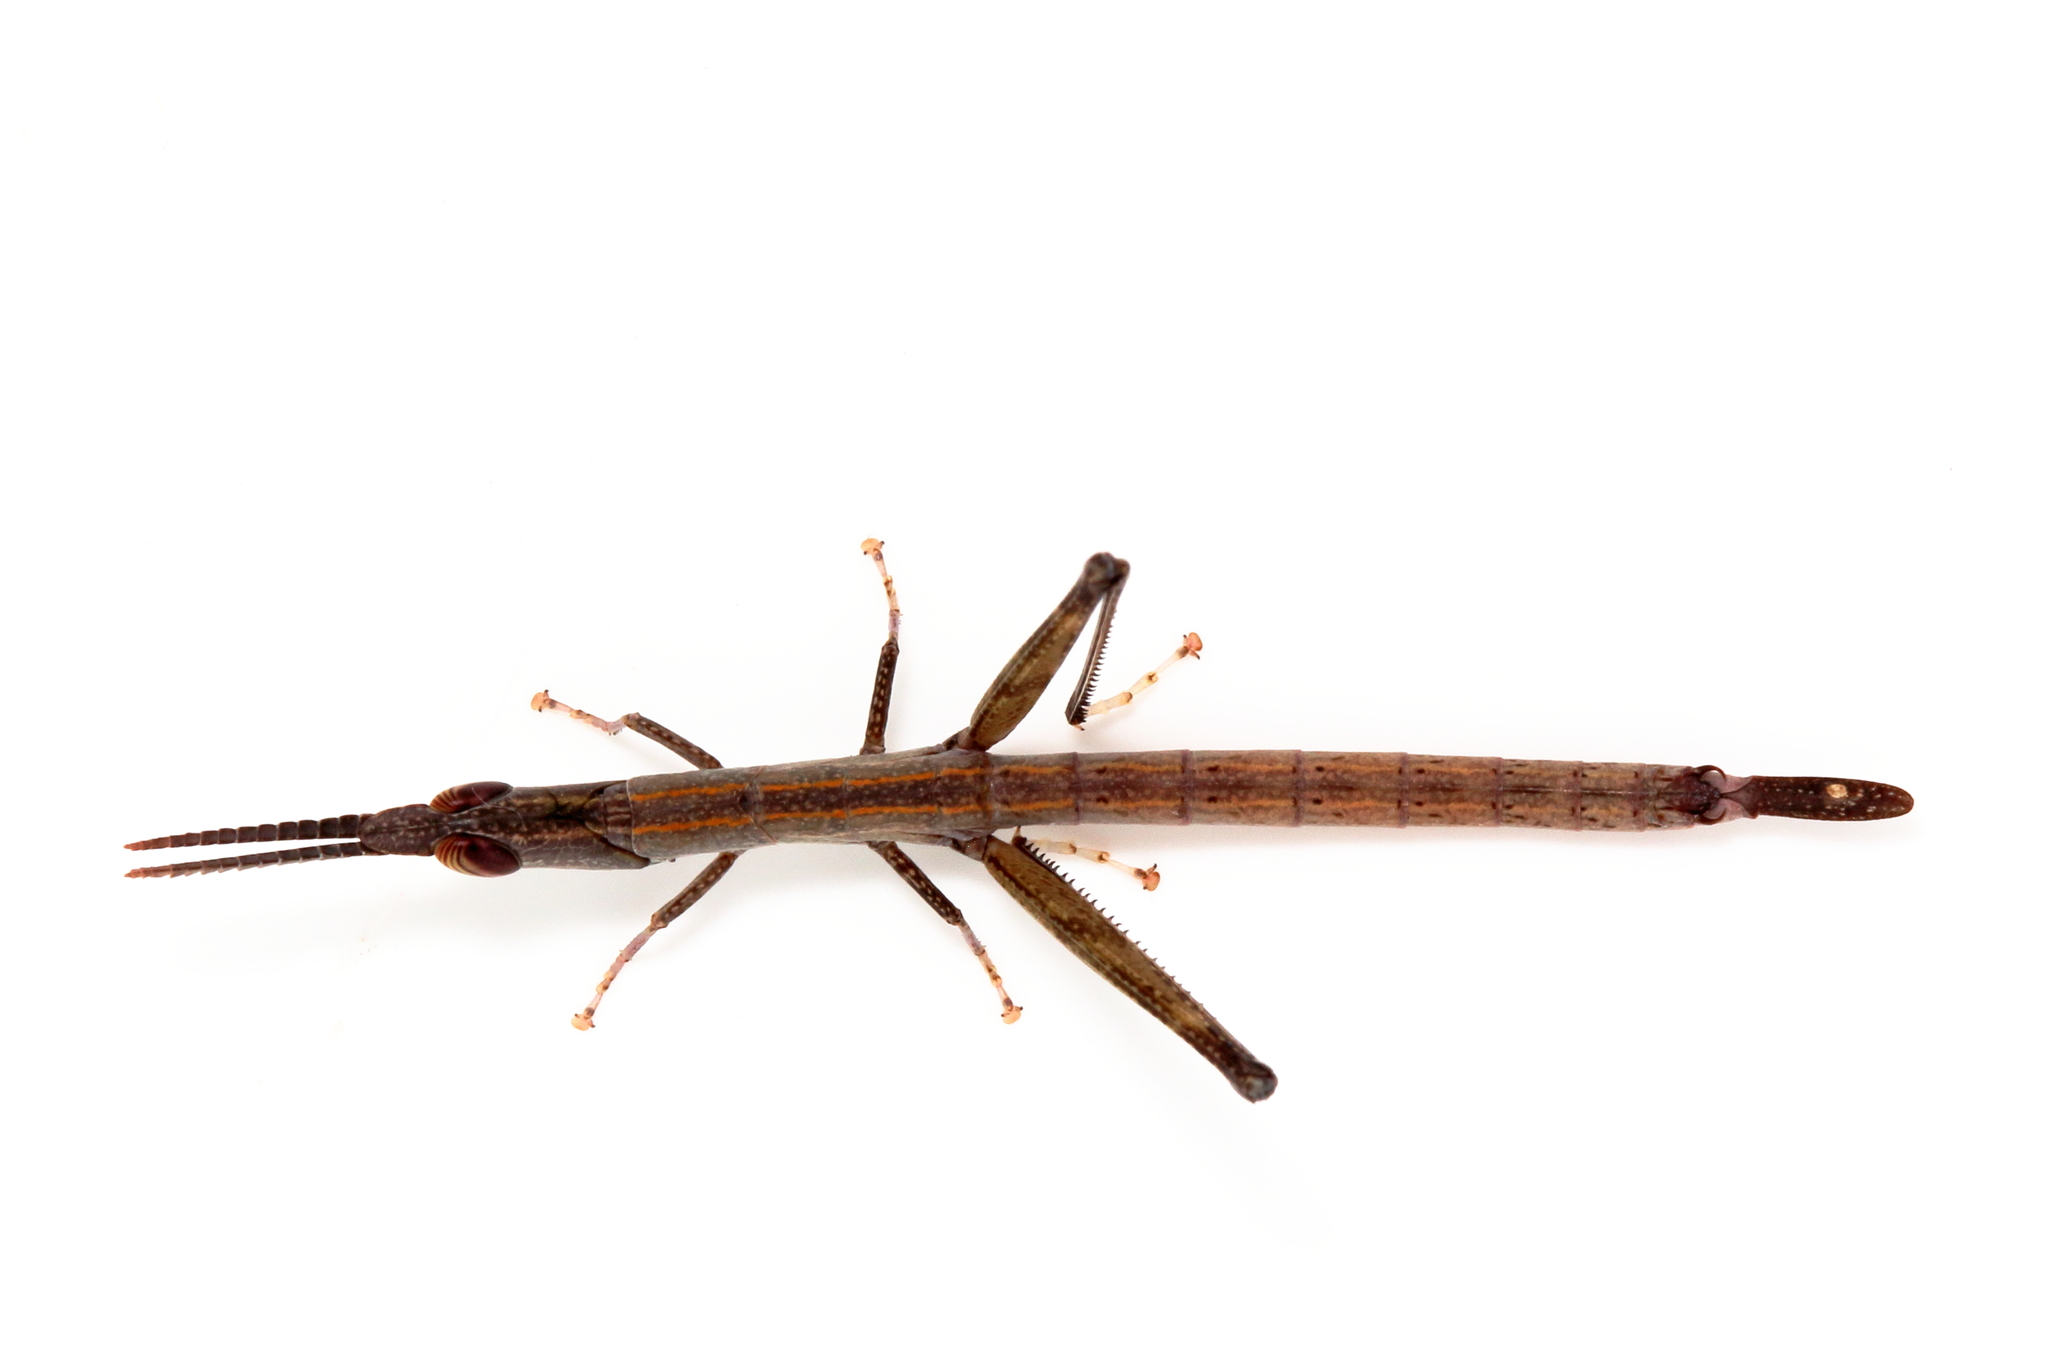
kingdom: Animalia
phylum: Arthropoda
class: Insecta
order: Orthoptera
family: Morabidae
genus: Warramaba
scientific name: Warramaba whitei
